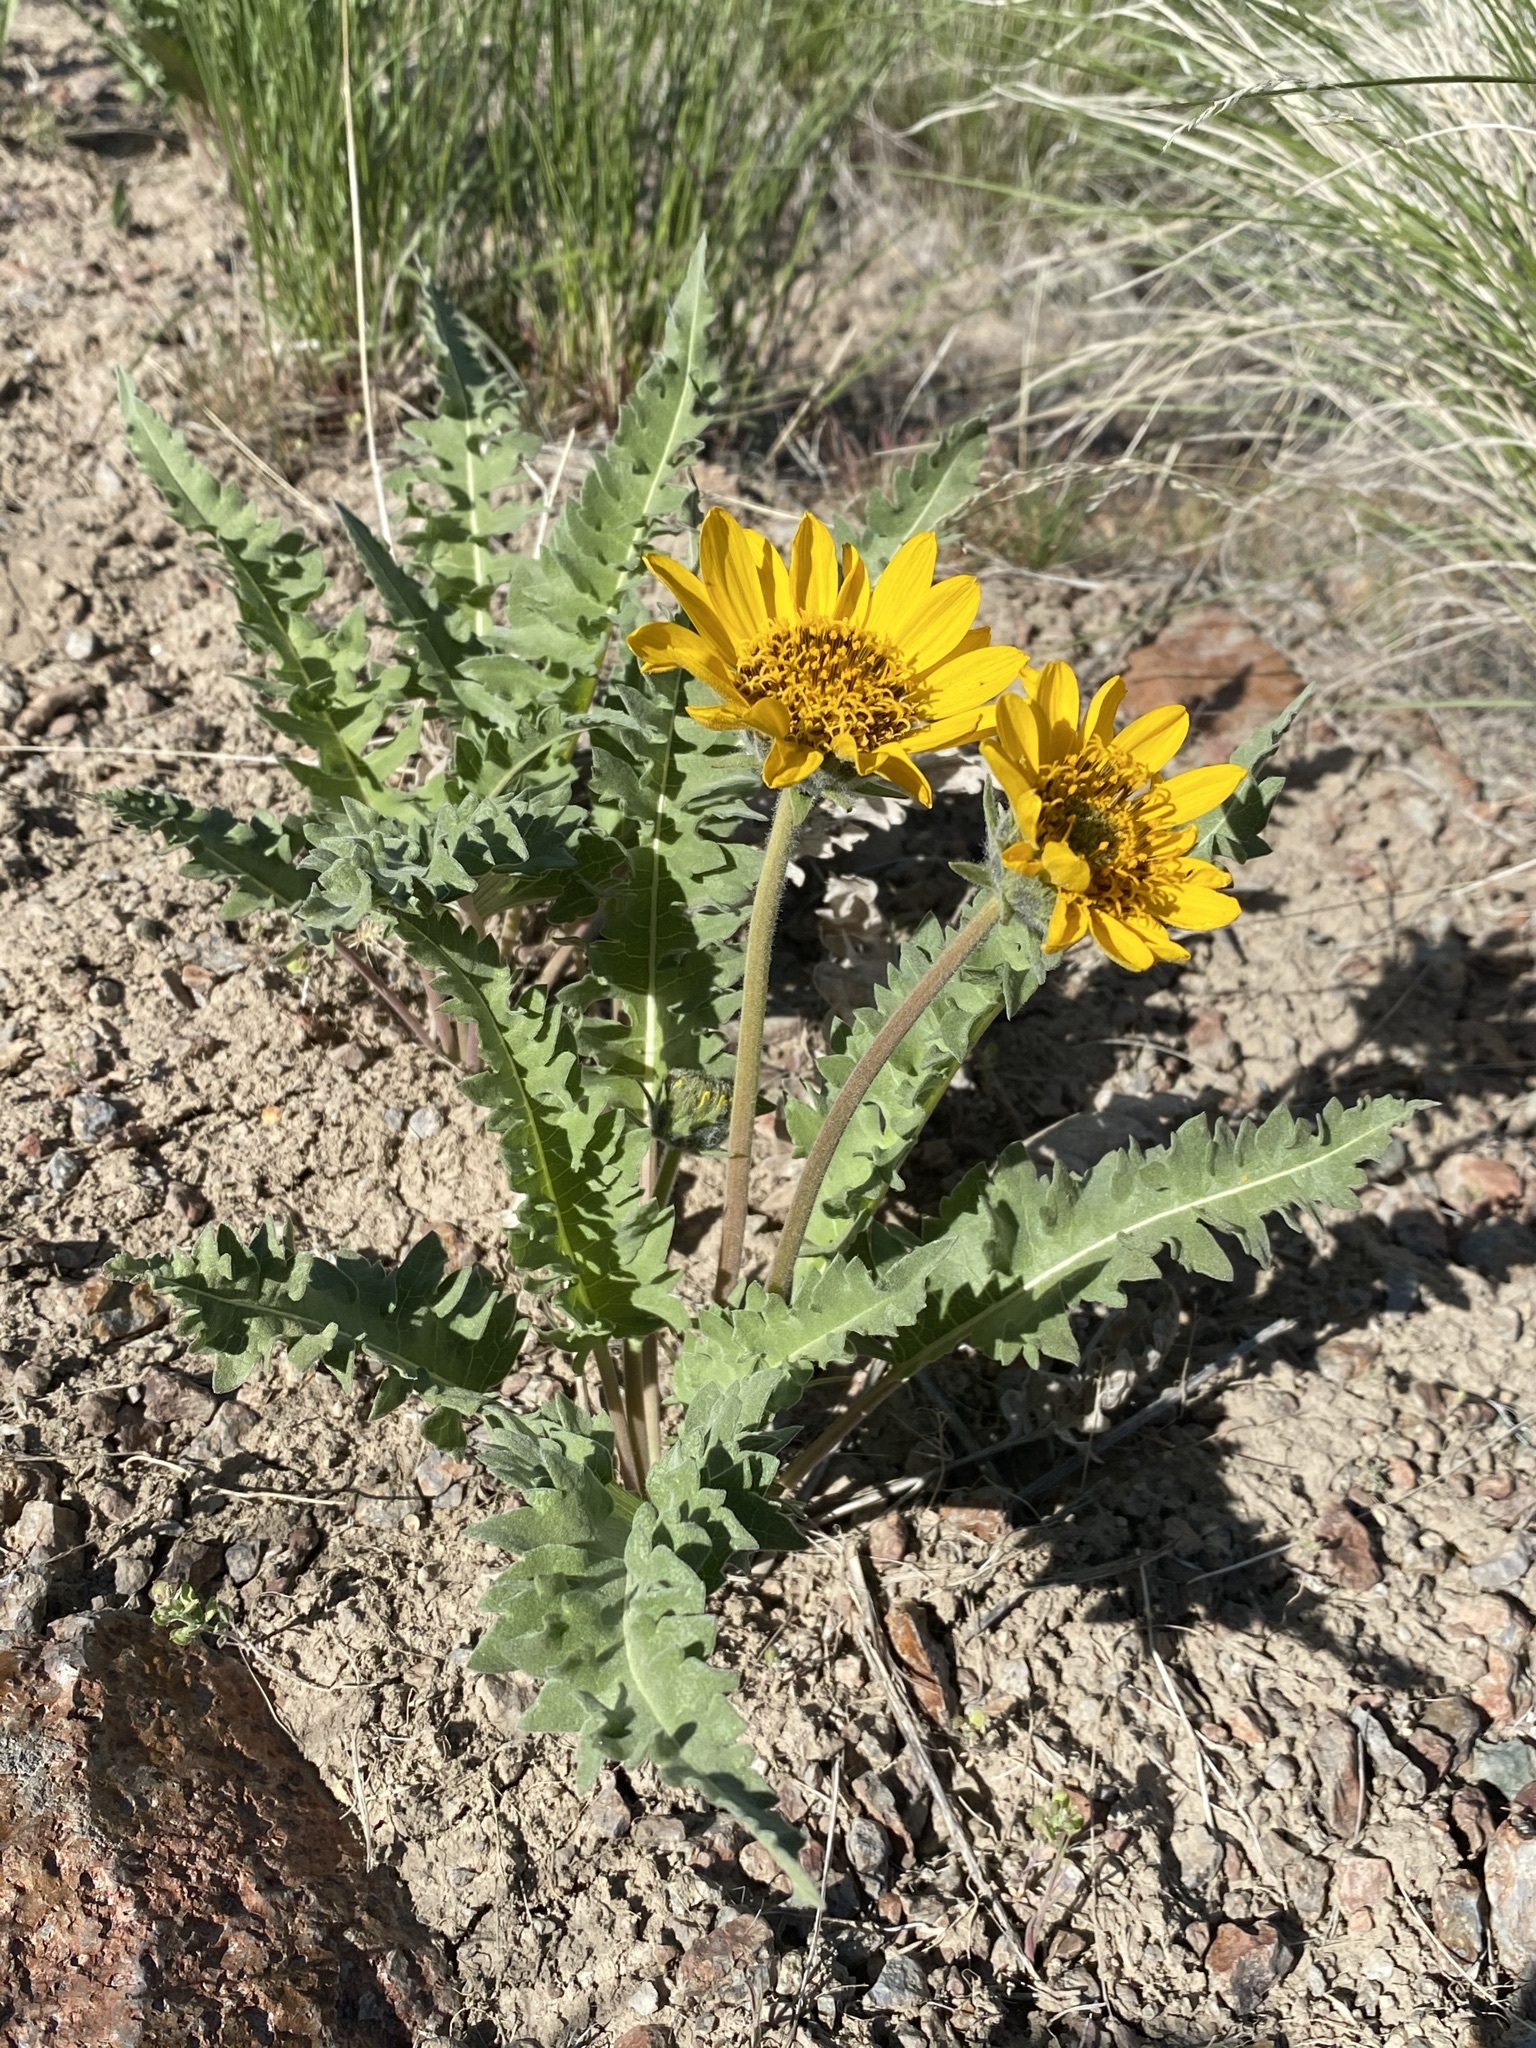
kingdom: Plantae
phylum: Tracheophyta
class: Magnoliopsida
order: Asterales
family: Asteraceae
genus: Balsamorhiza
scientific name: Balsamorhiza hookeri
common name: Hooker's balsamroot
